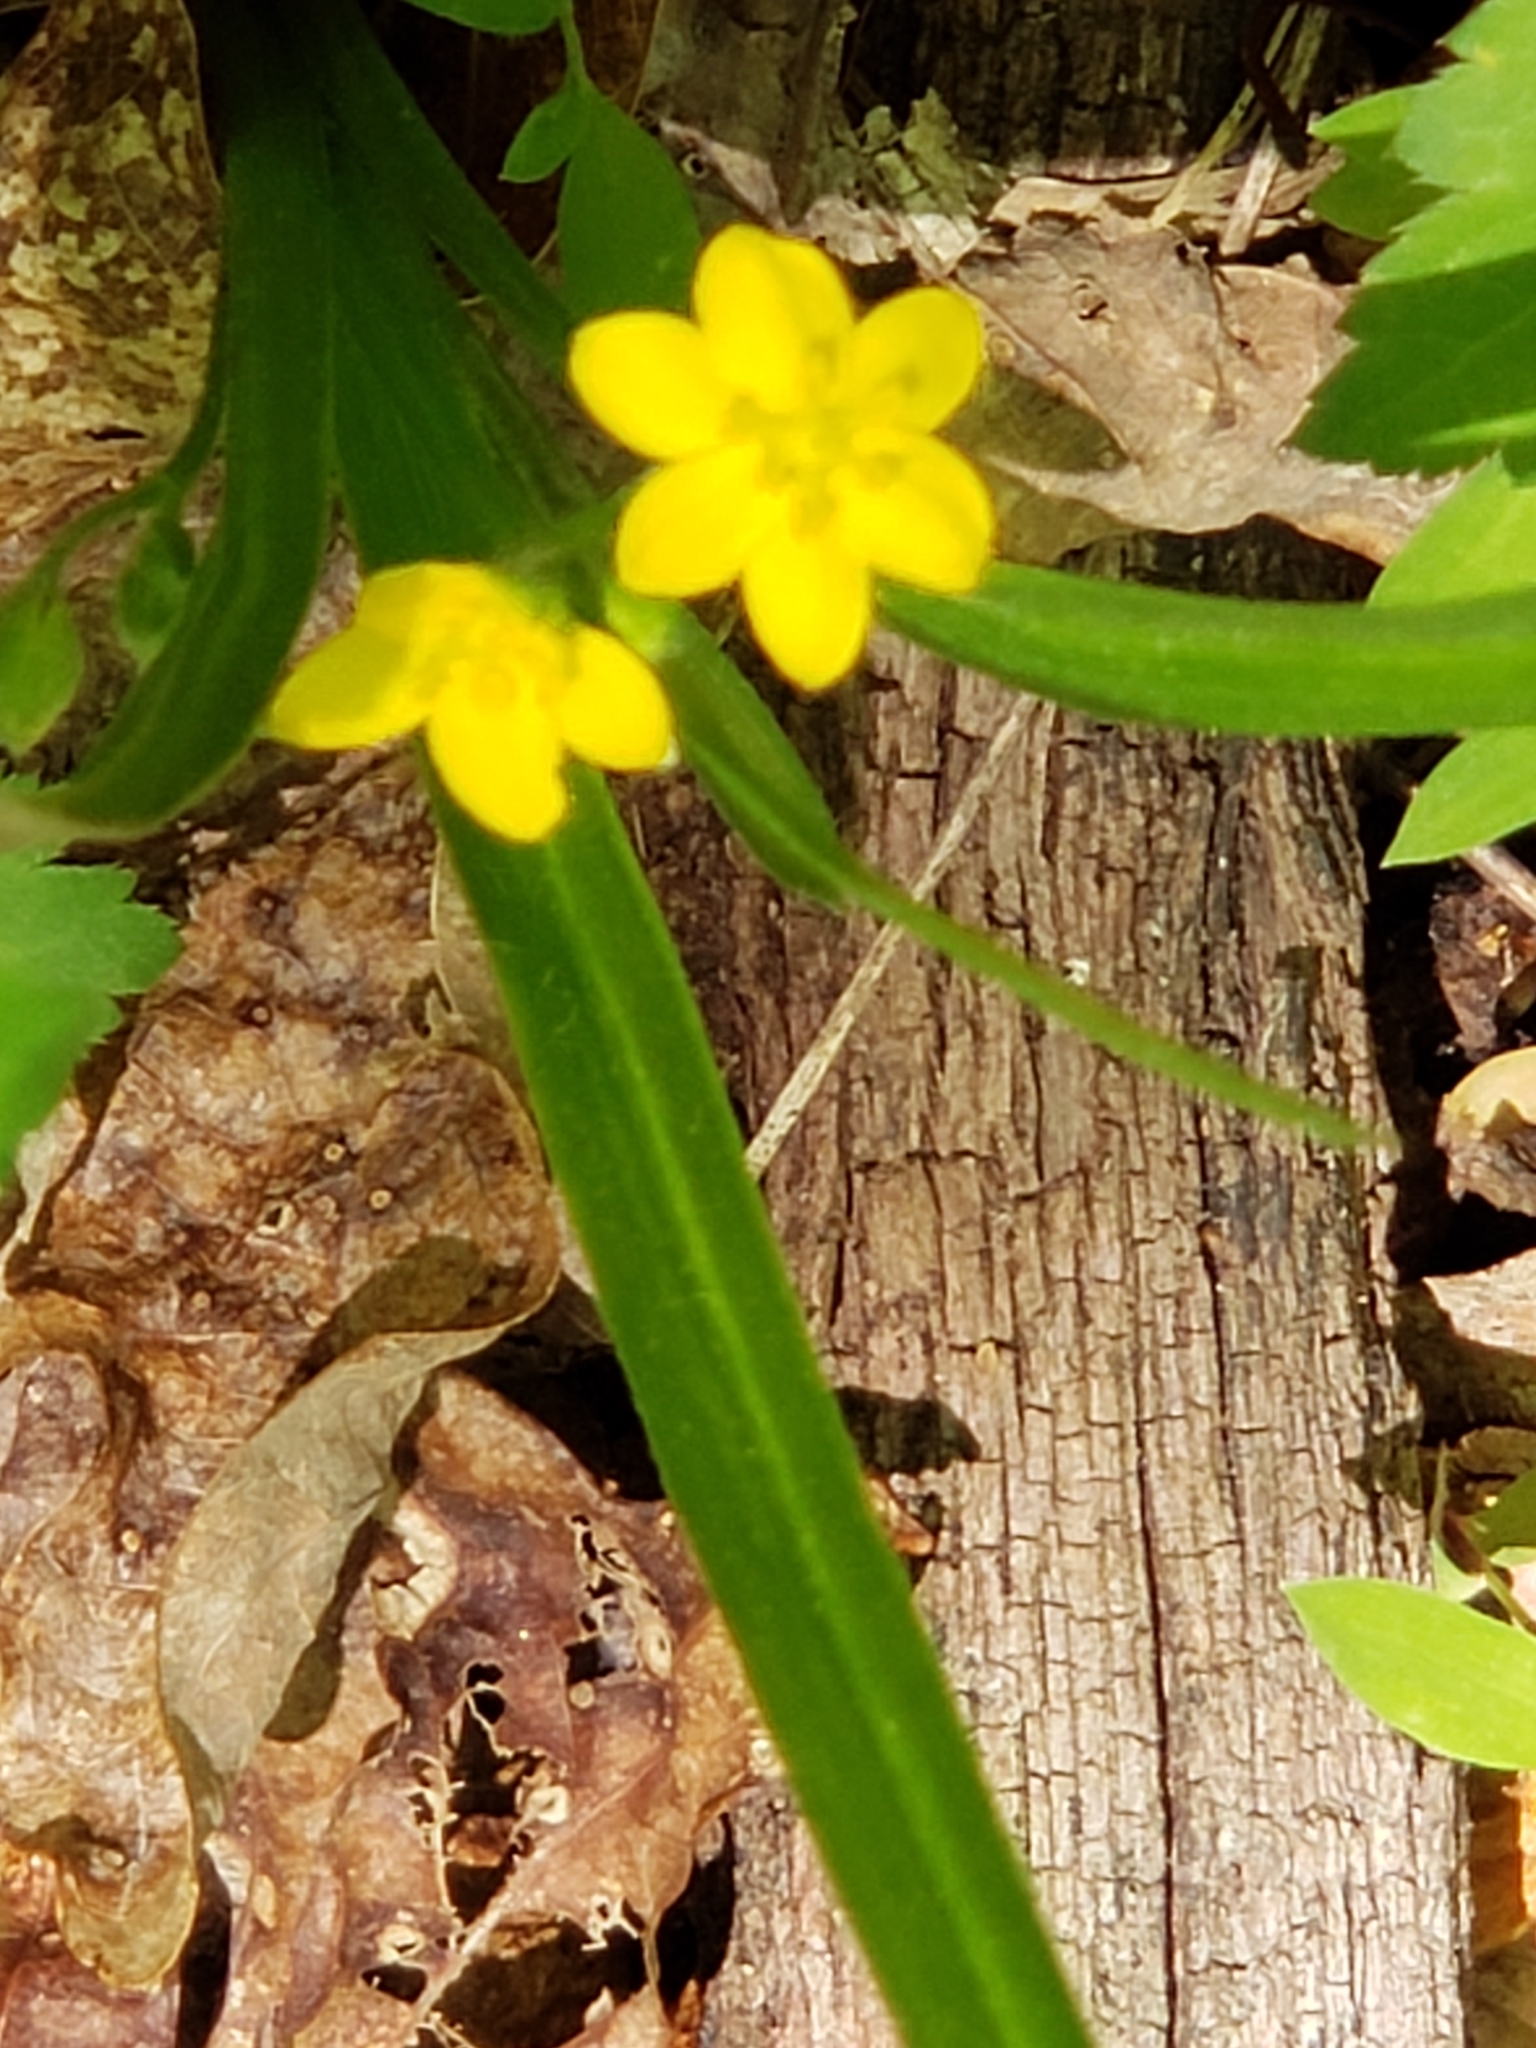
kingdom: Plantae
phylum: Tracheophyta
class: Liliopsida
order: Asparagales
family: Hypoxidaceae
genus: Hypoxis
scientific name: Hypoxis hirsuta
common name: Common goldstar
